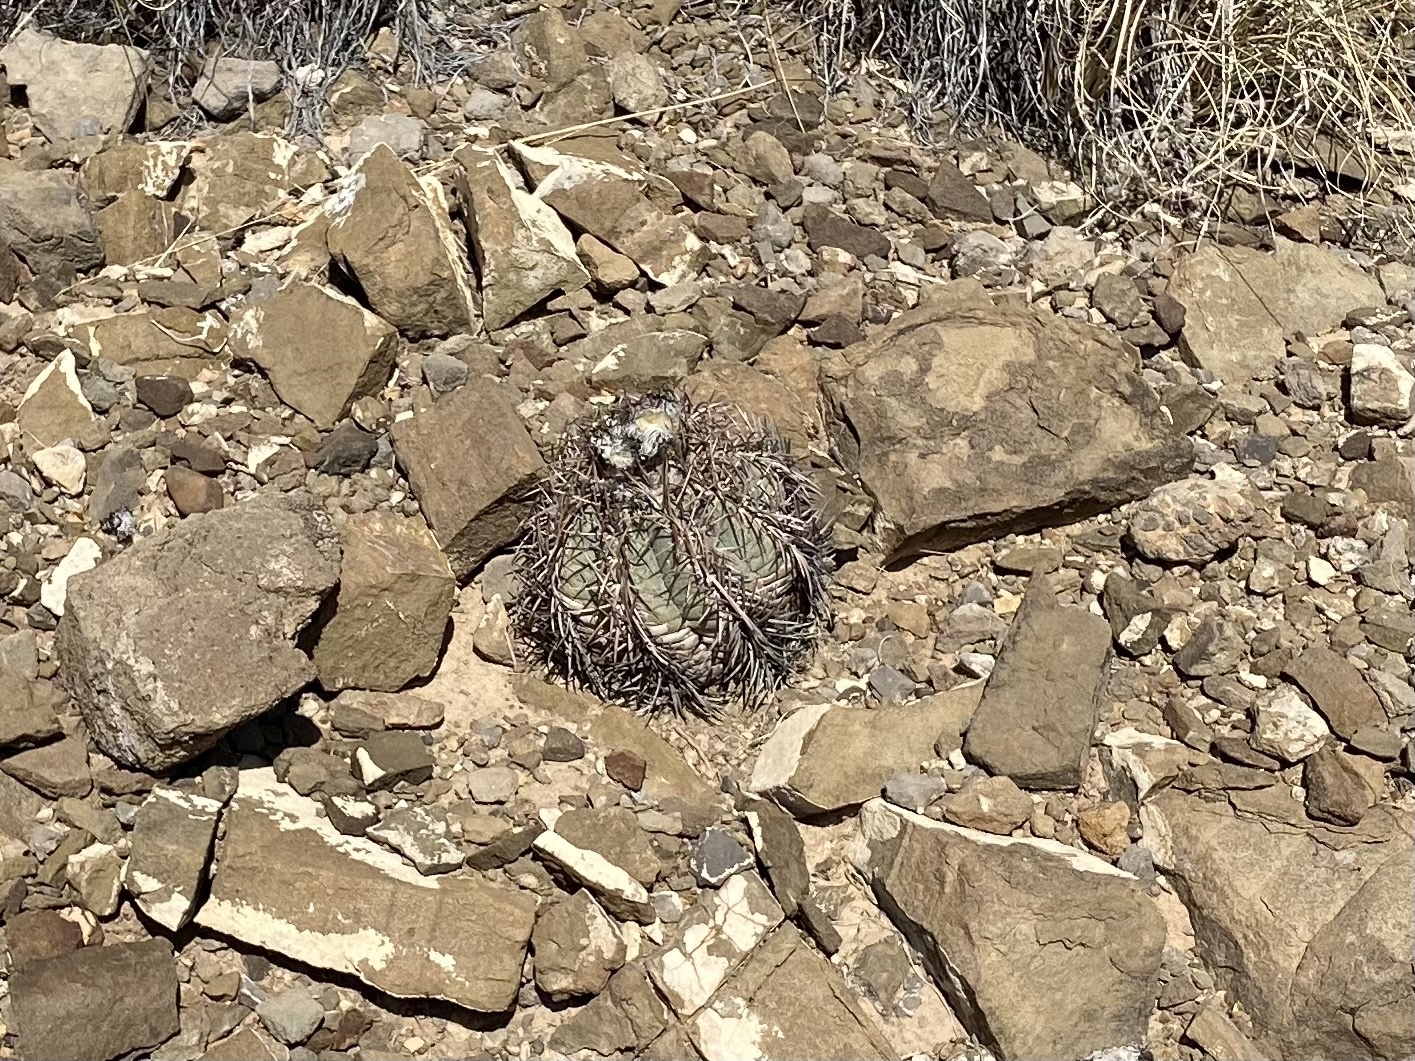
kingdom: Plantae
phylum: Tracheophyta
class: Magnoliopsida
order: Caryophyllales
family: Cactaceae
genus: Echinocactus
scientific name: Echinocactus horizonthalonius
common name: Devilshead
